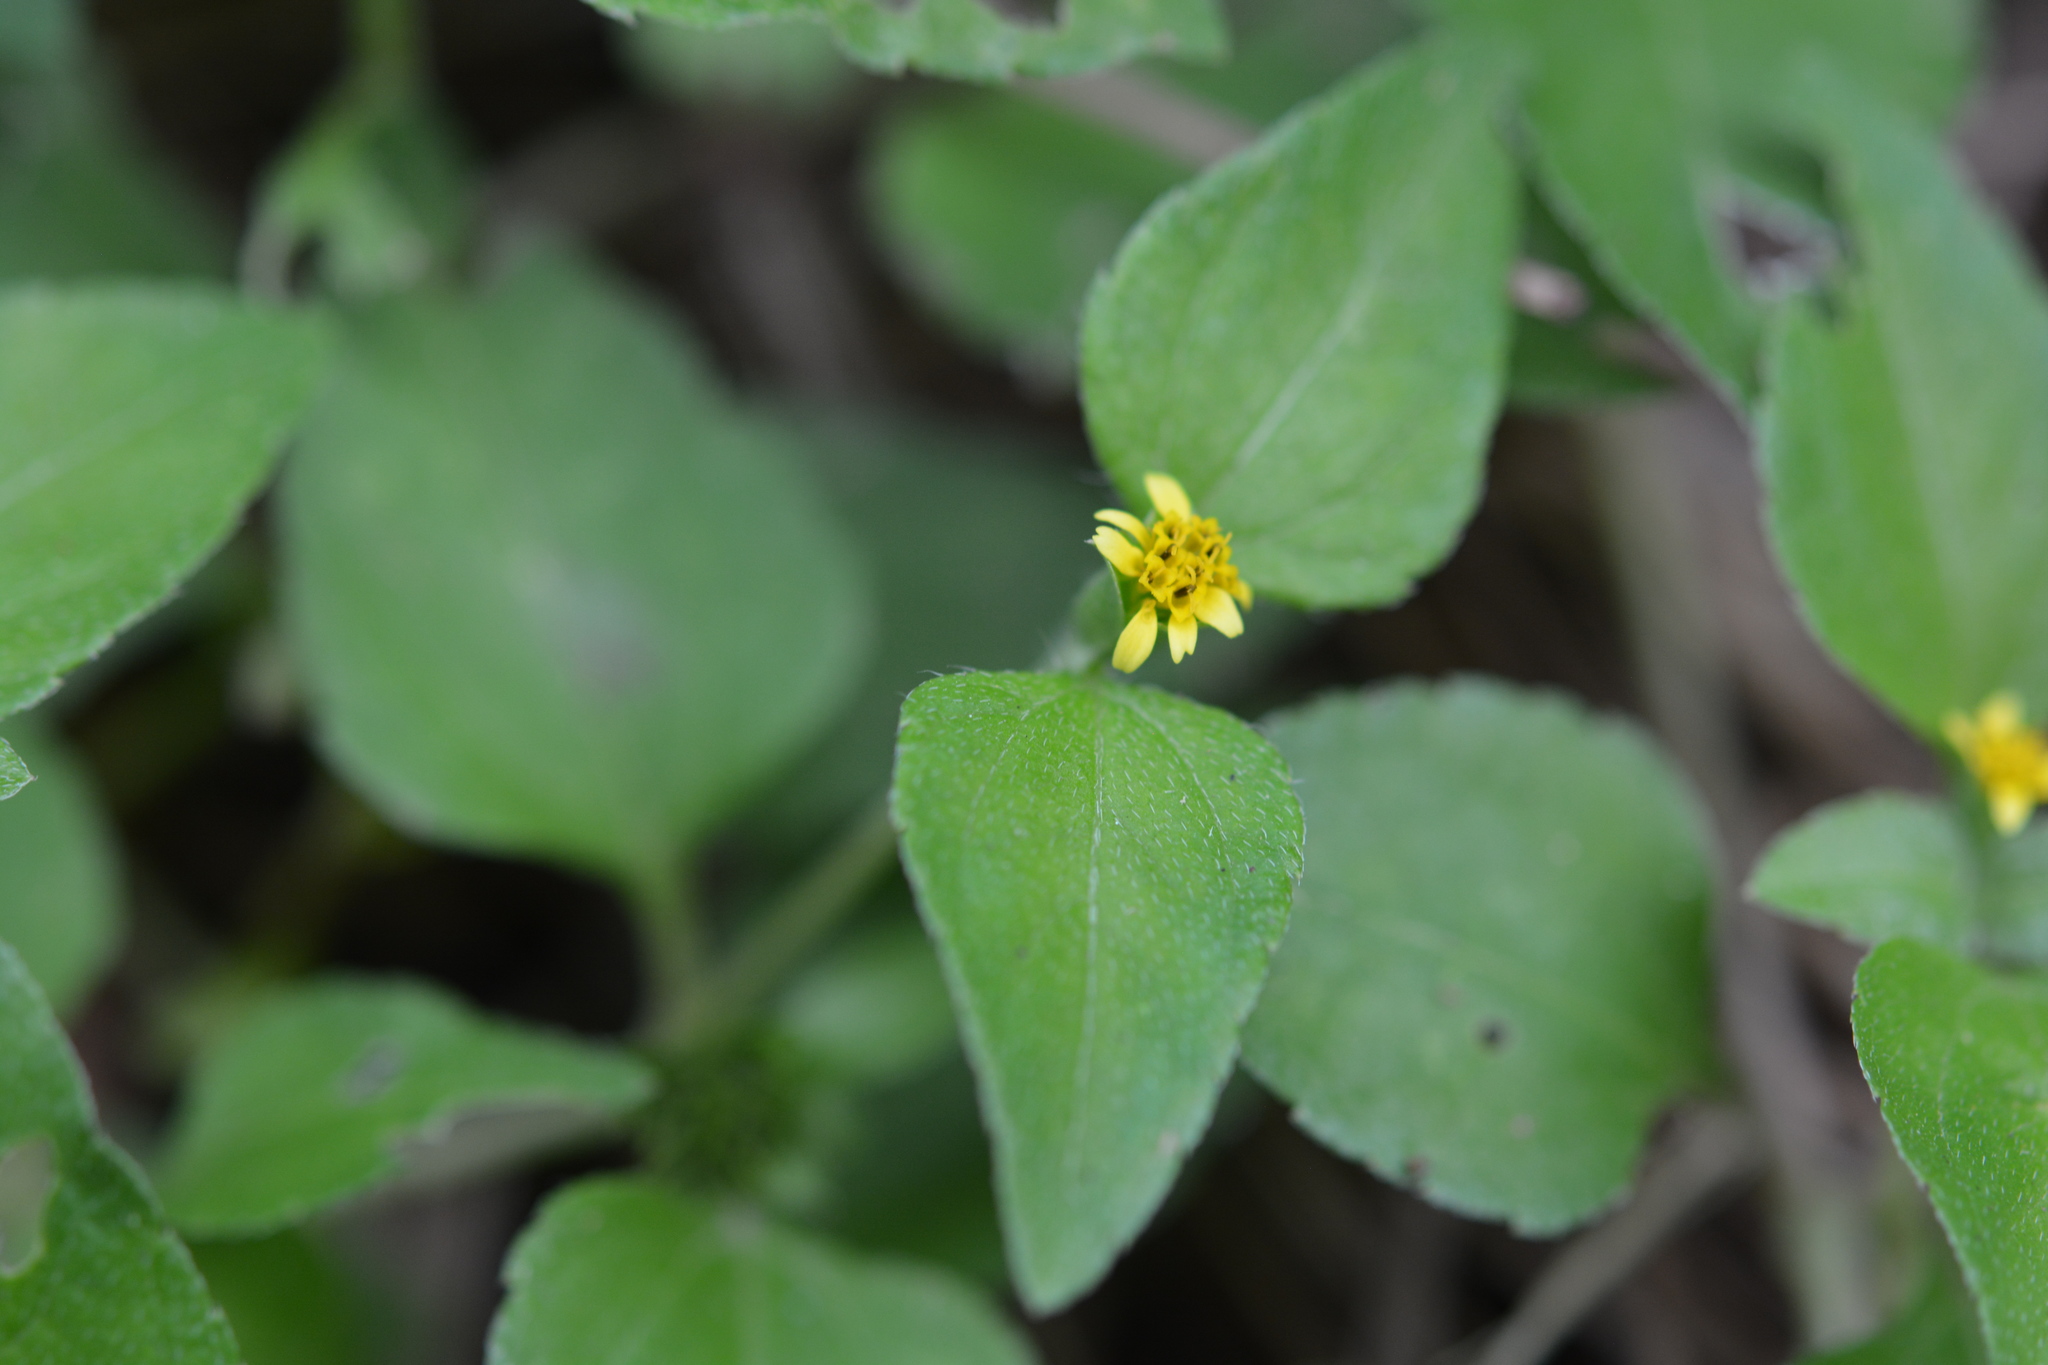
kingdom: Plantae
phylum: Tracheophyta
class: Magnoliopsida
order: Asterales
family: Asteraceae
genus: Calyptocarpus
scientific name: Calyptocarpus vialis
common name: Straggler daisy
